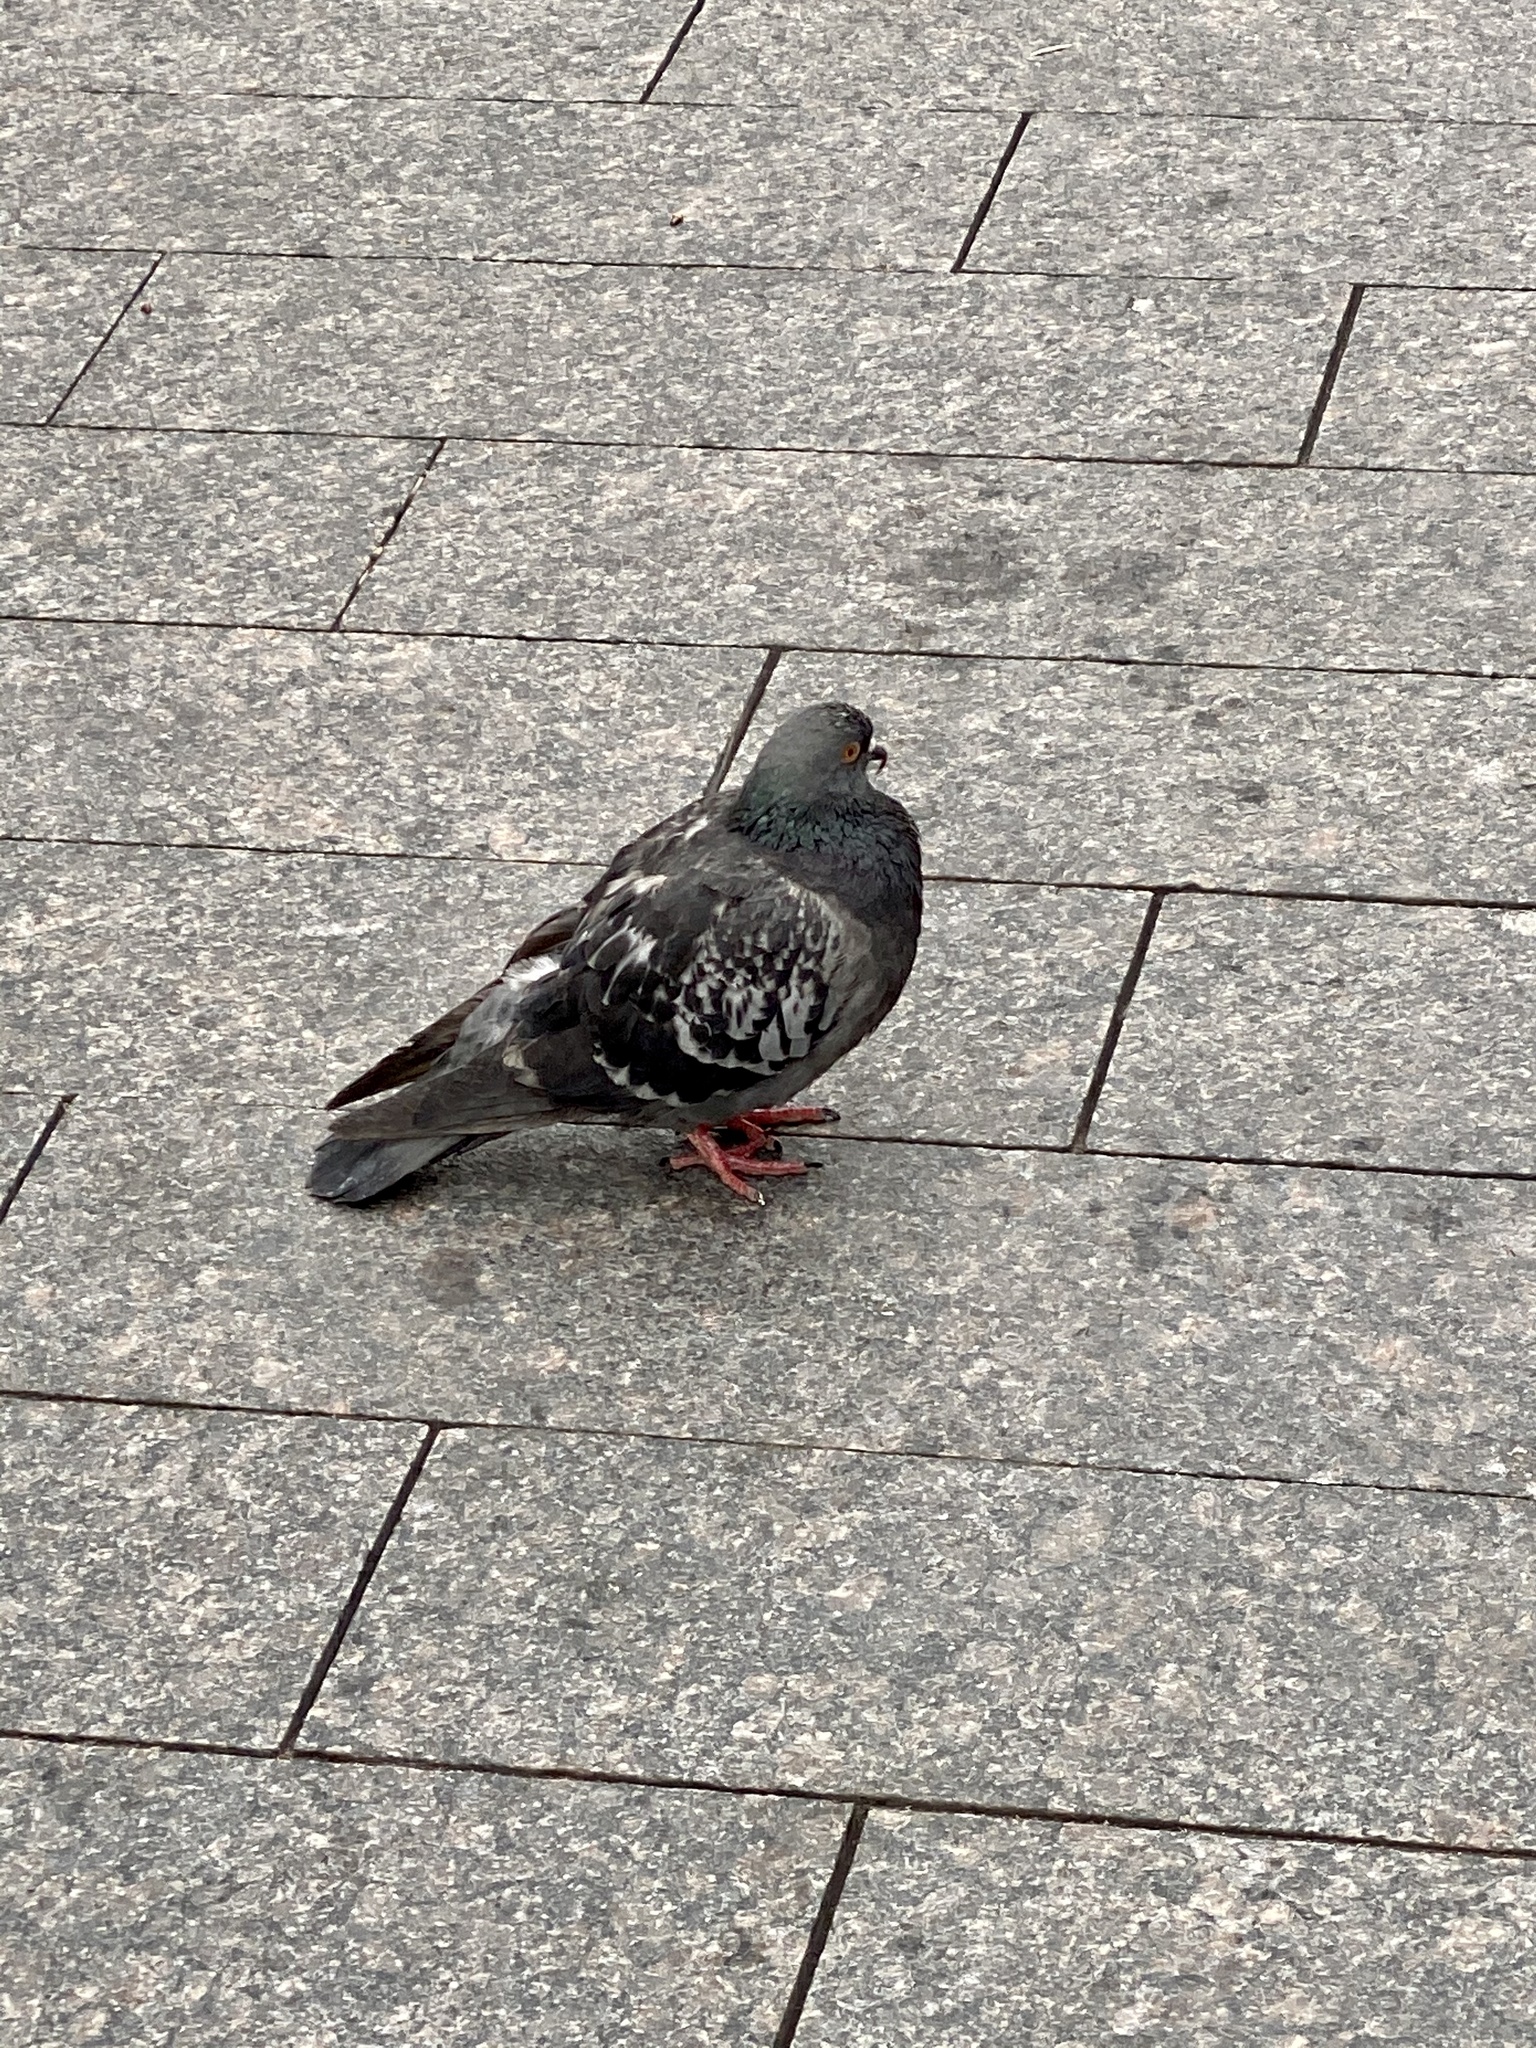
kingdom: Animalia
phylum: Chordata
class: Aves
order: Columbiformes
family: Columbidae
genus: Columba
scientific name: Columba livia
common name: Rock pigeon
